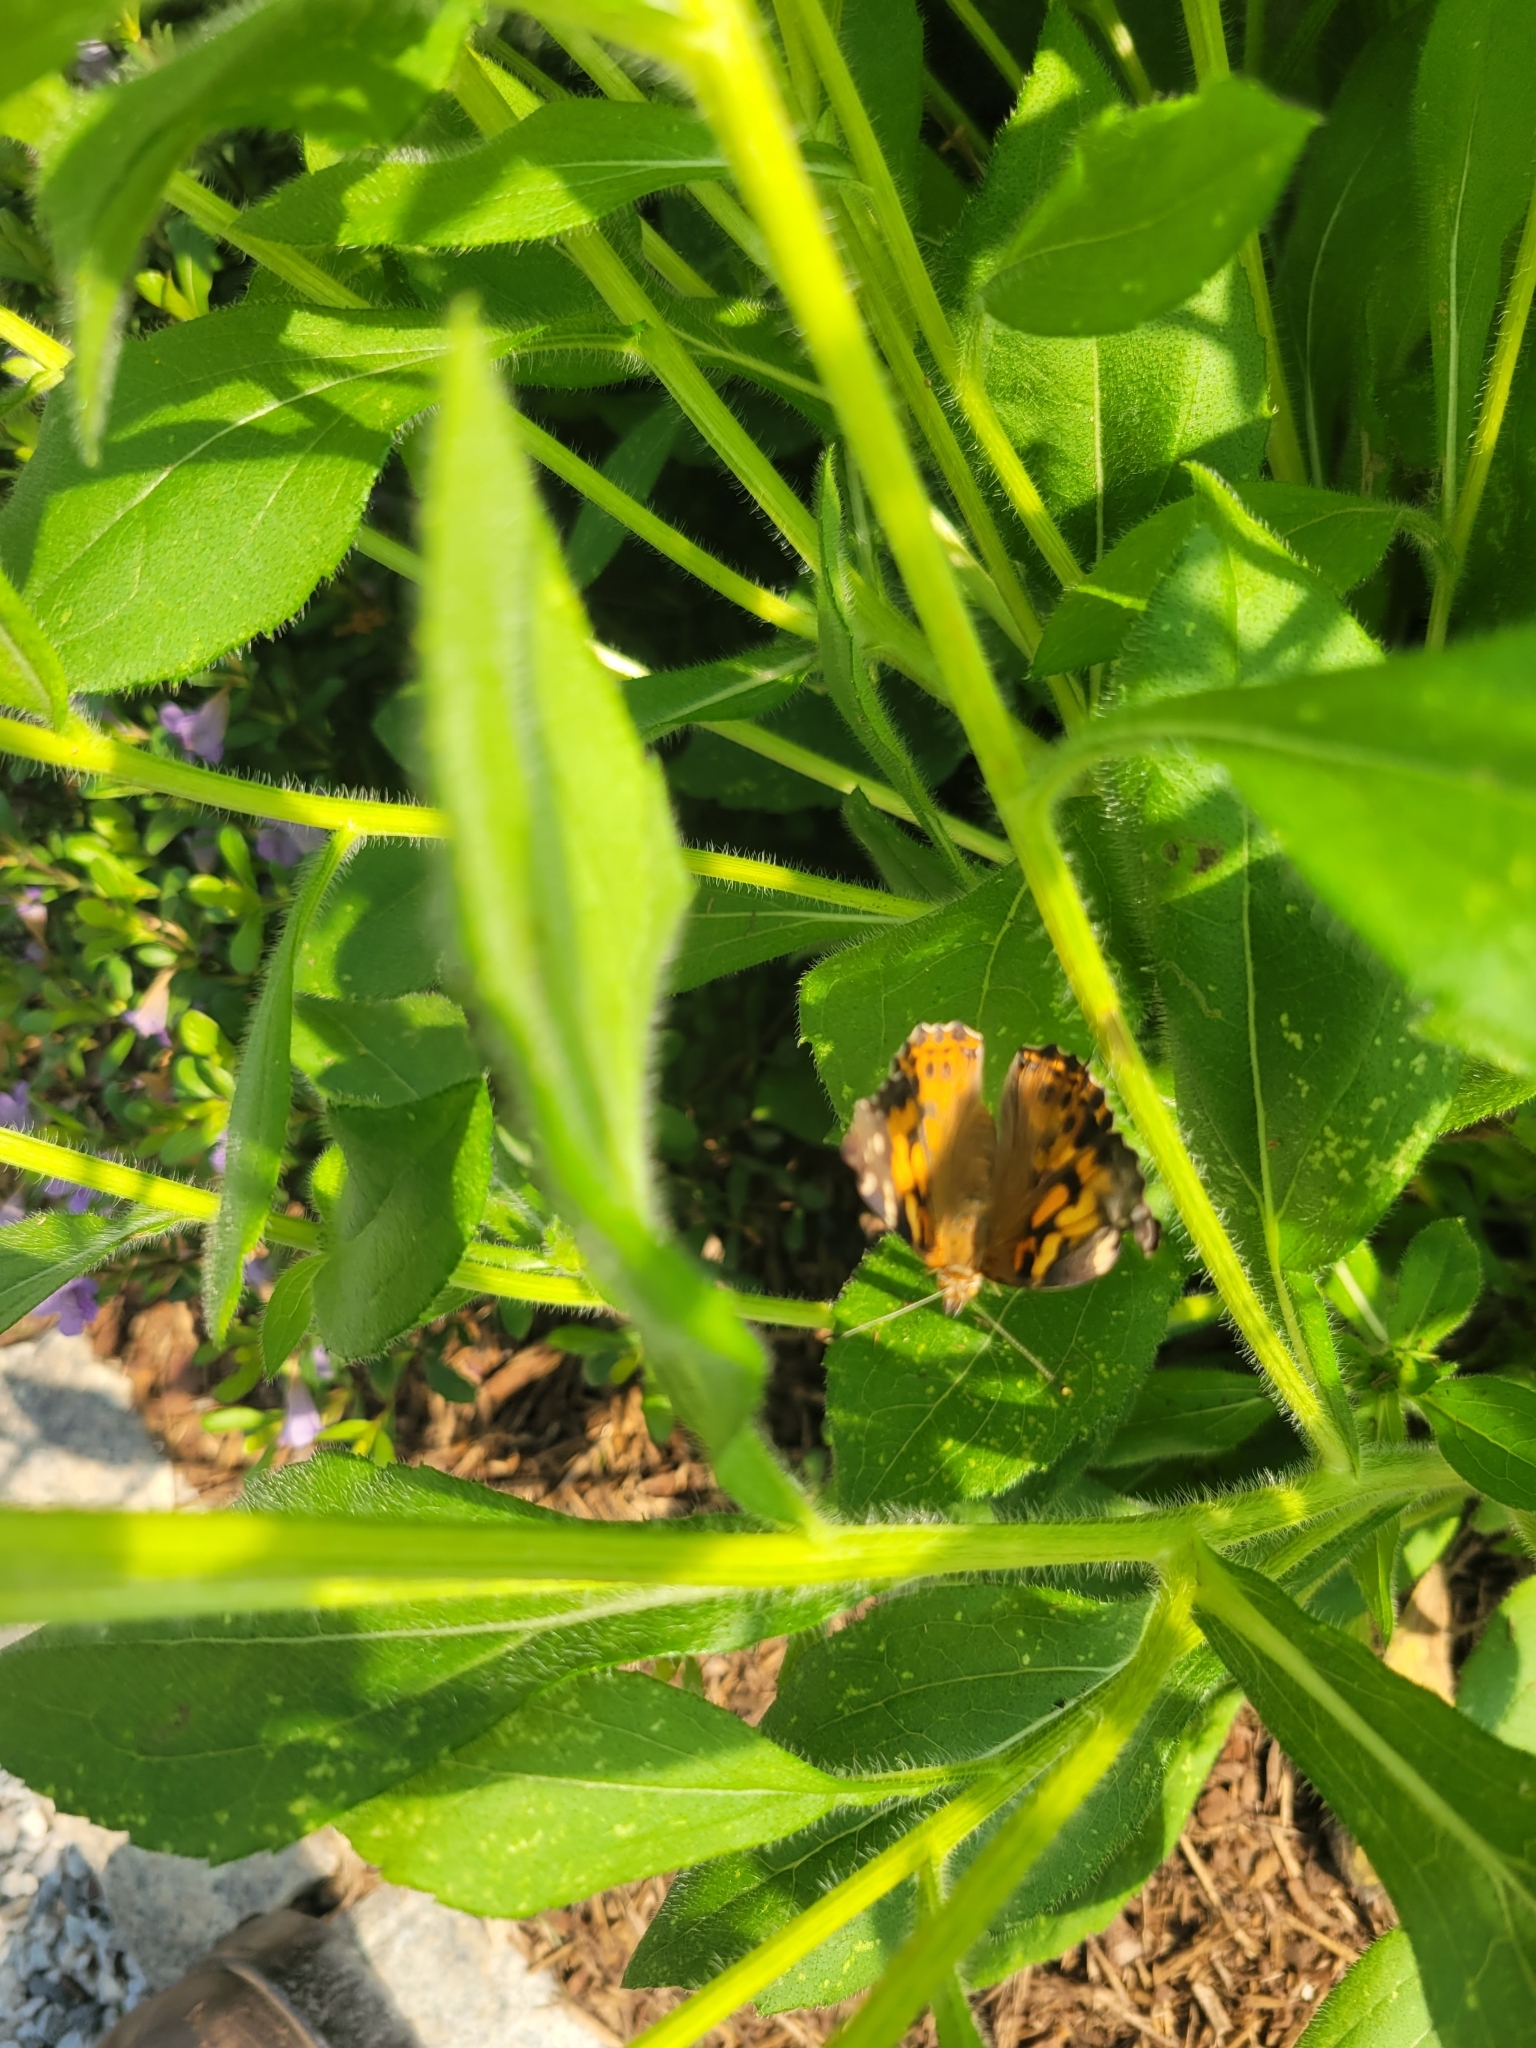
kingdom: Animalia
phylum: Arthropoda
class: Insecta
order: Lepidoptera
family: Nymphalidae
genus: Vanessa
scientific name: Vanessa cardui
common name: Painted lady
